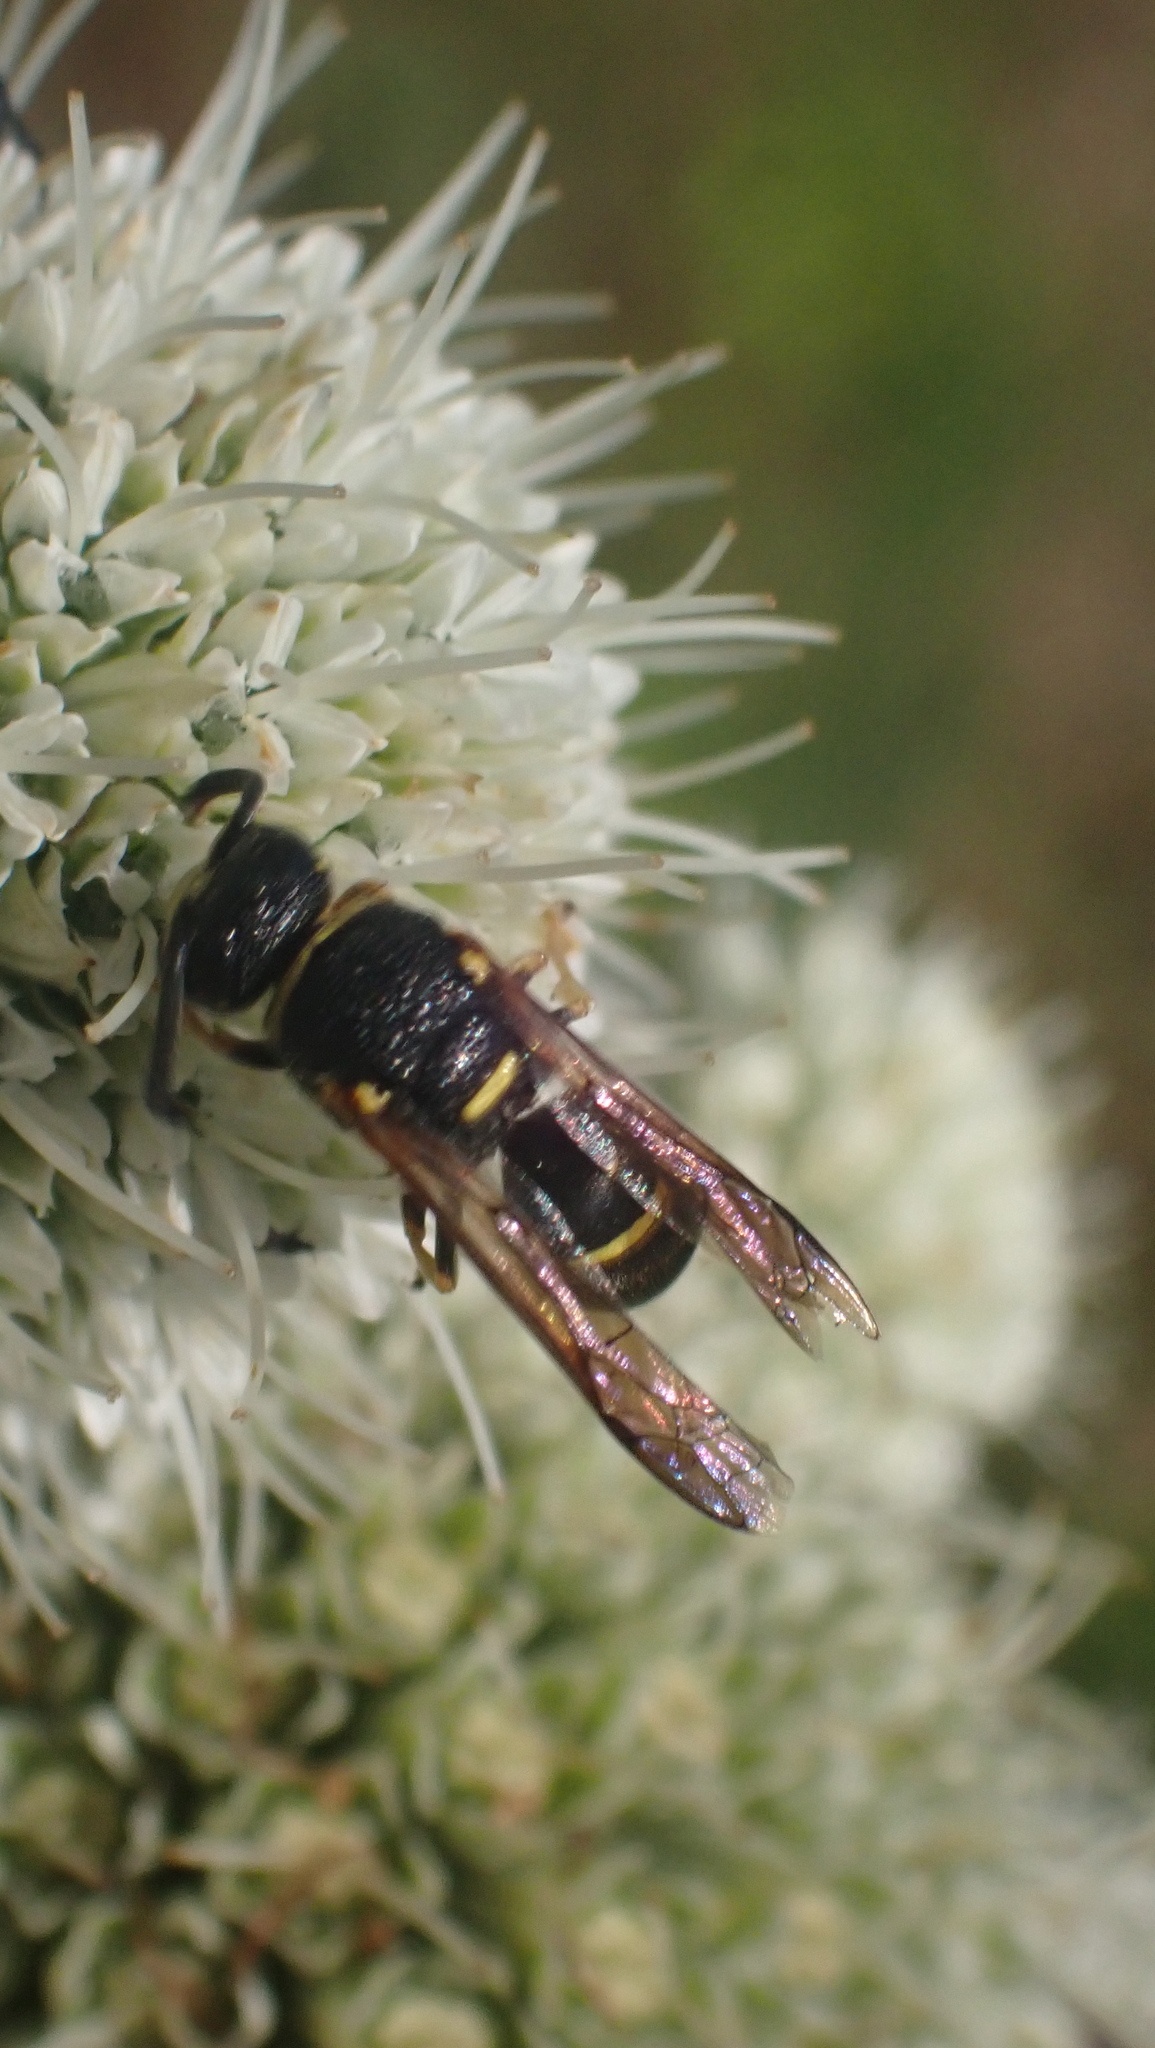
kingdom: Animalia
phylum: Arthropoda
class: Insecta
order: Hymenoptera
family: Eumenidae
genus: Euodynerus
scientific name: Euodynerus foraminatus
